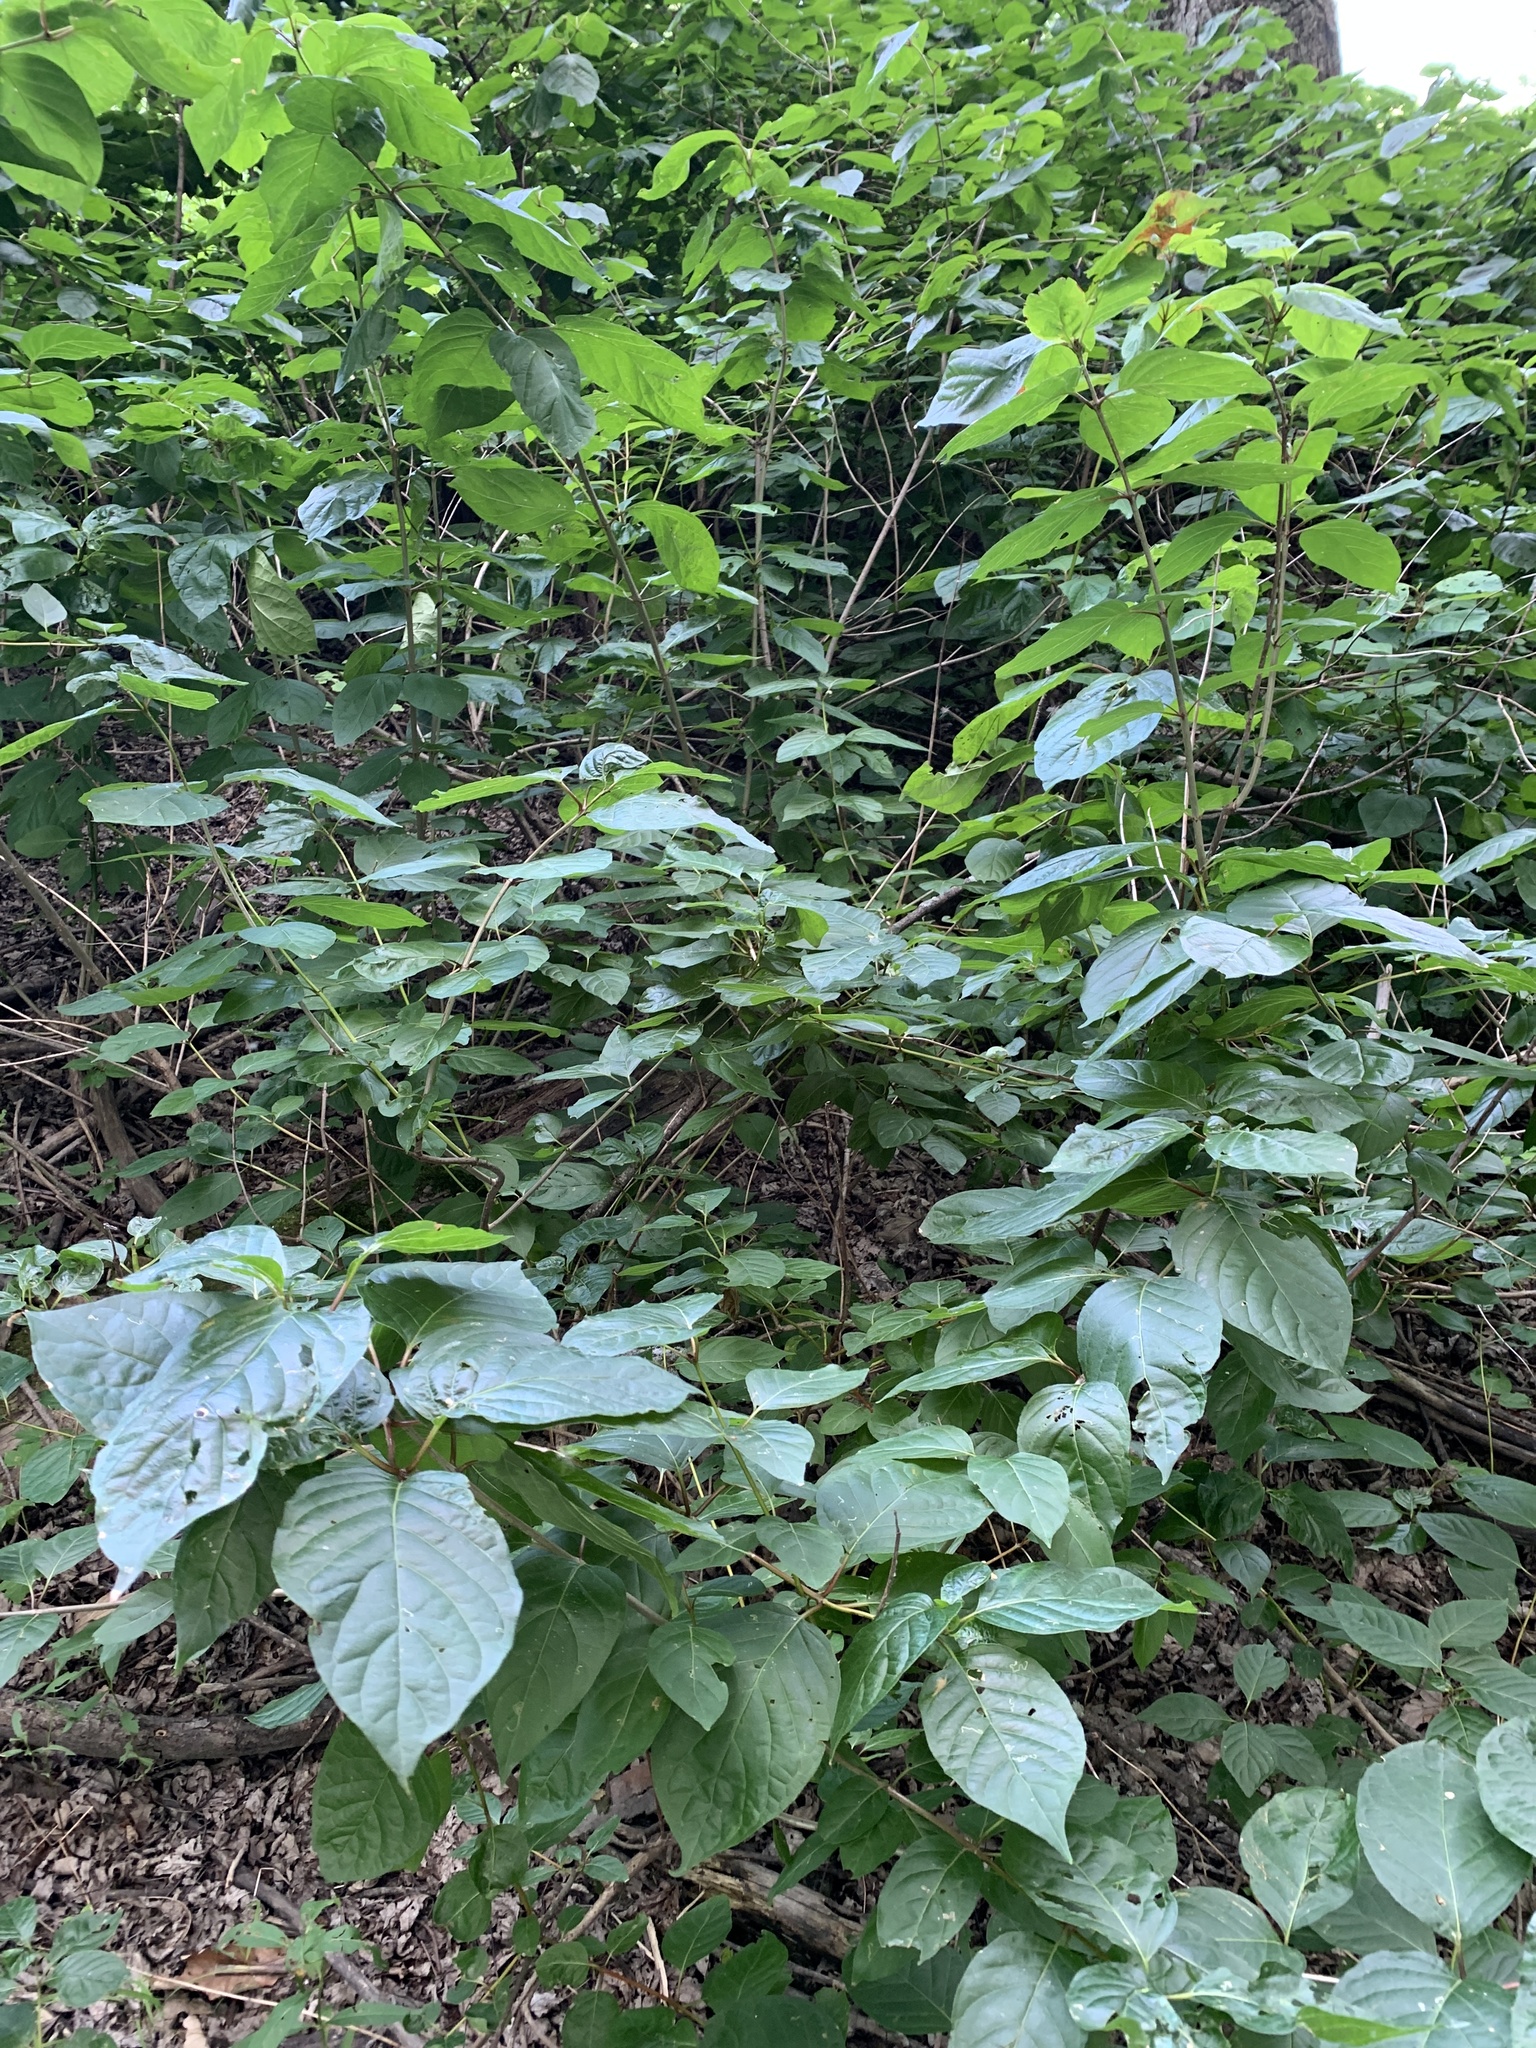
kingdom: Plantae
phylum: Tracheophyta
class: Magnoliopsida
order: Gentianales
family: Rubiaceae
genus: Cephalanthus
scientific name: Cephalanthus occidentalis
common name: Button-willow
